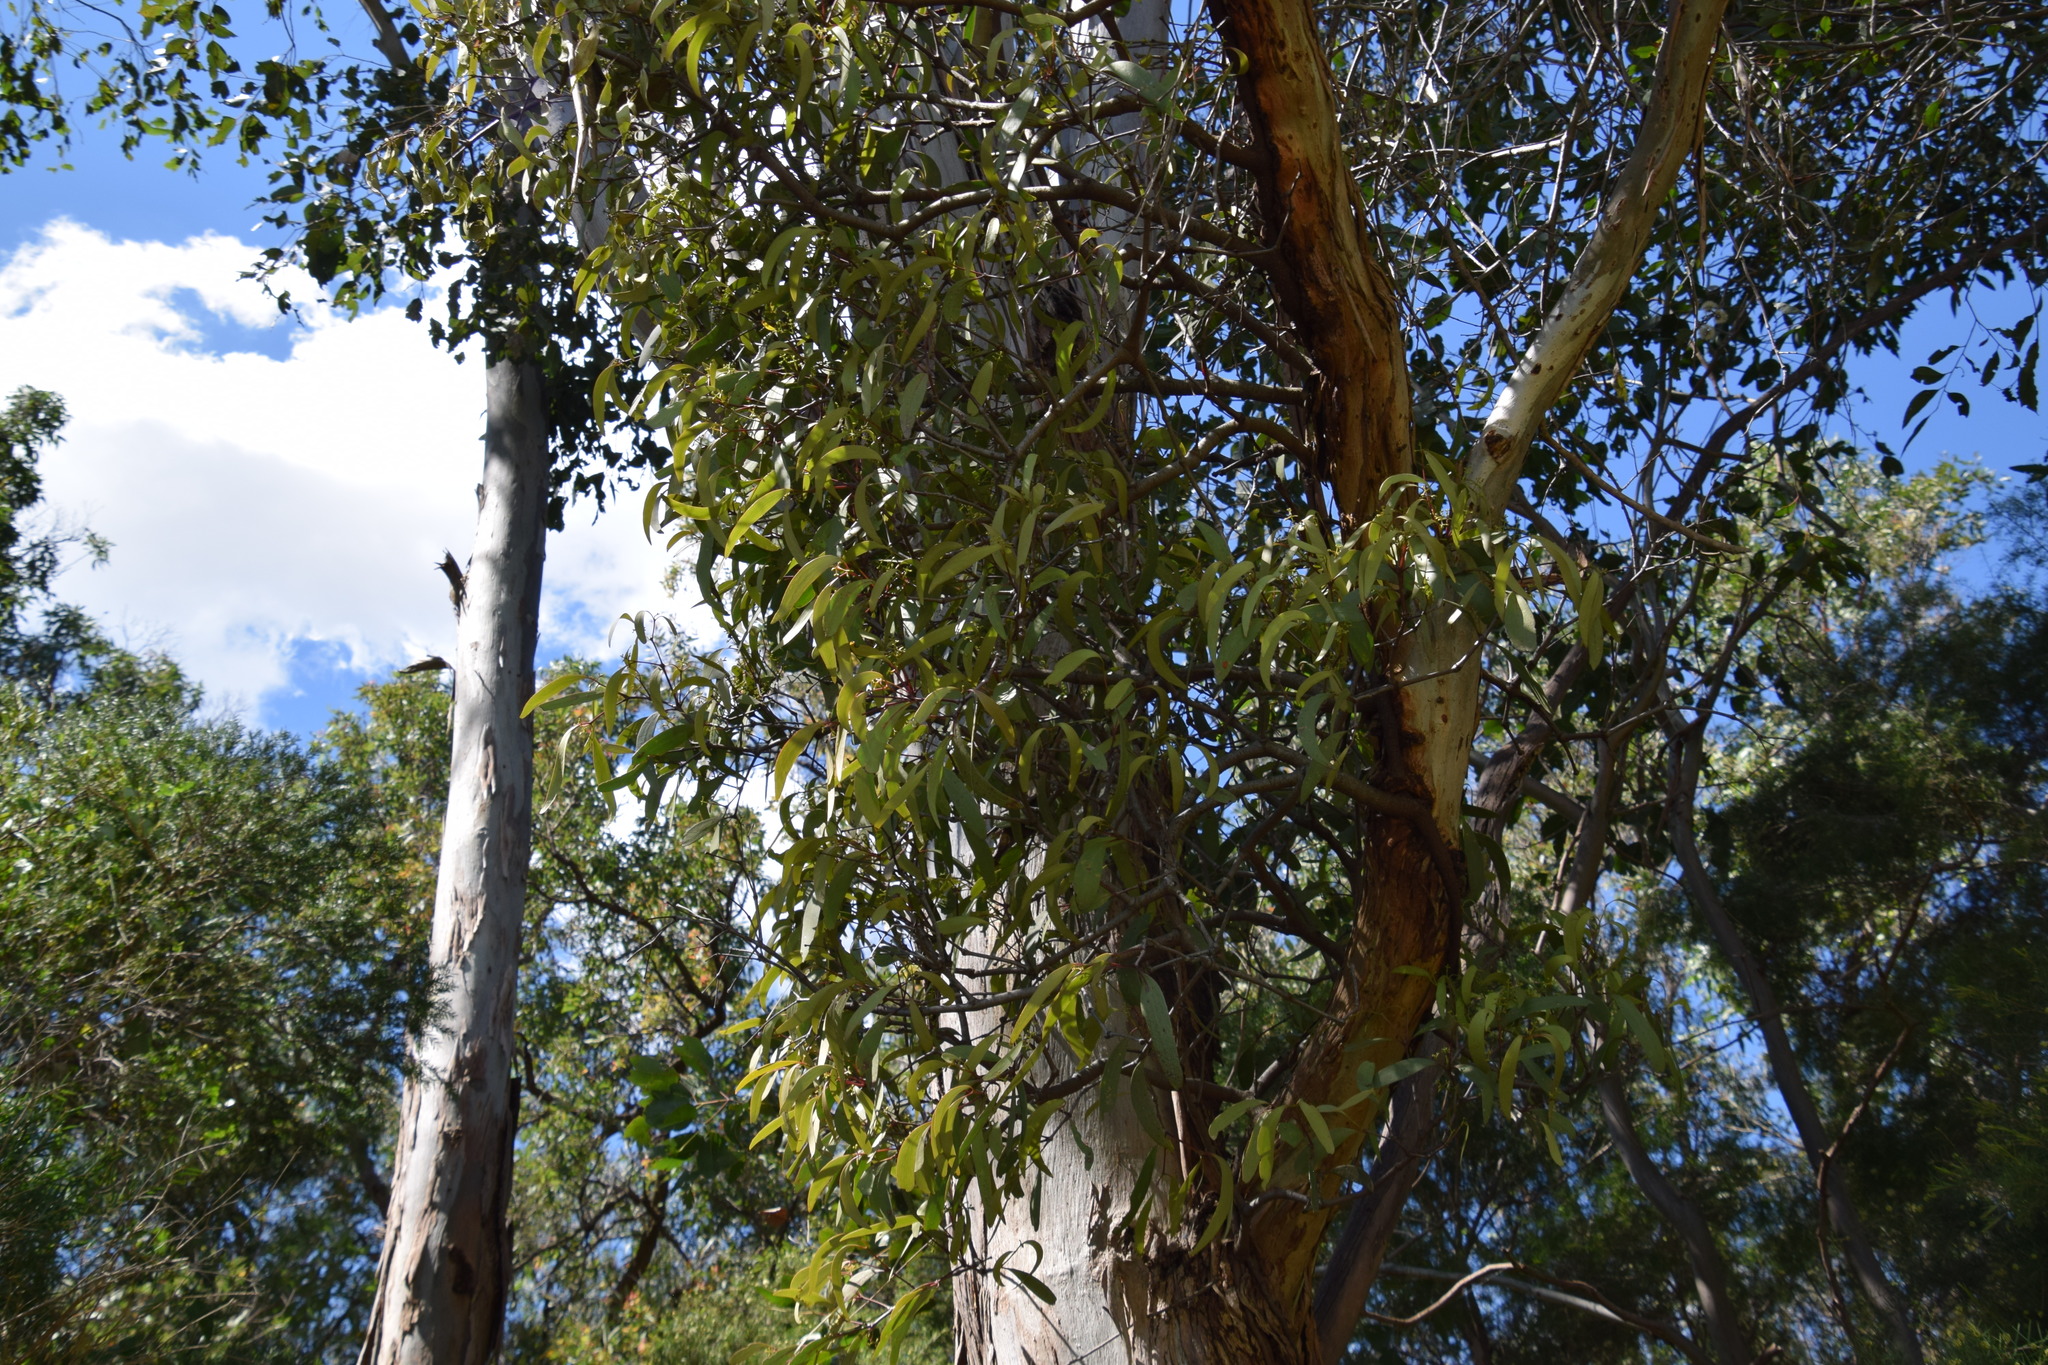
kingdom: Plantae
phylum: Tracheophyta
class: Magnoliopsida
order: Santalales
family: Loranthaceae
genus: Muellerina
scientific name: Muellerina eucalyptoides
